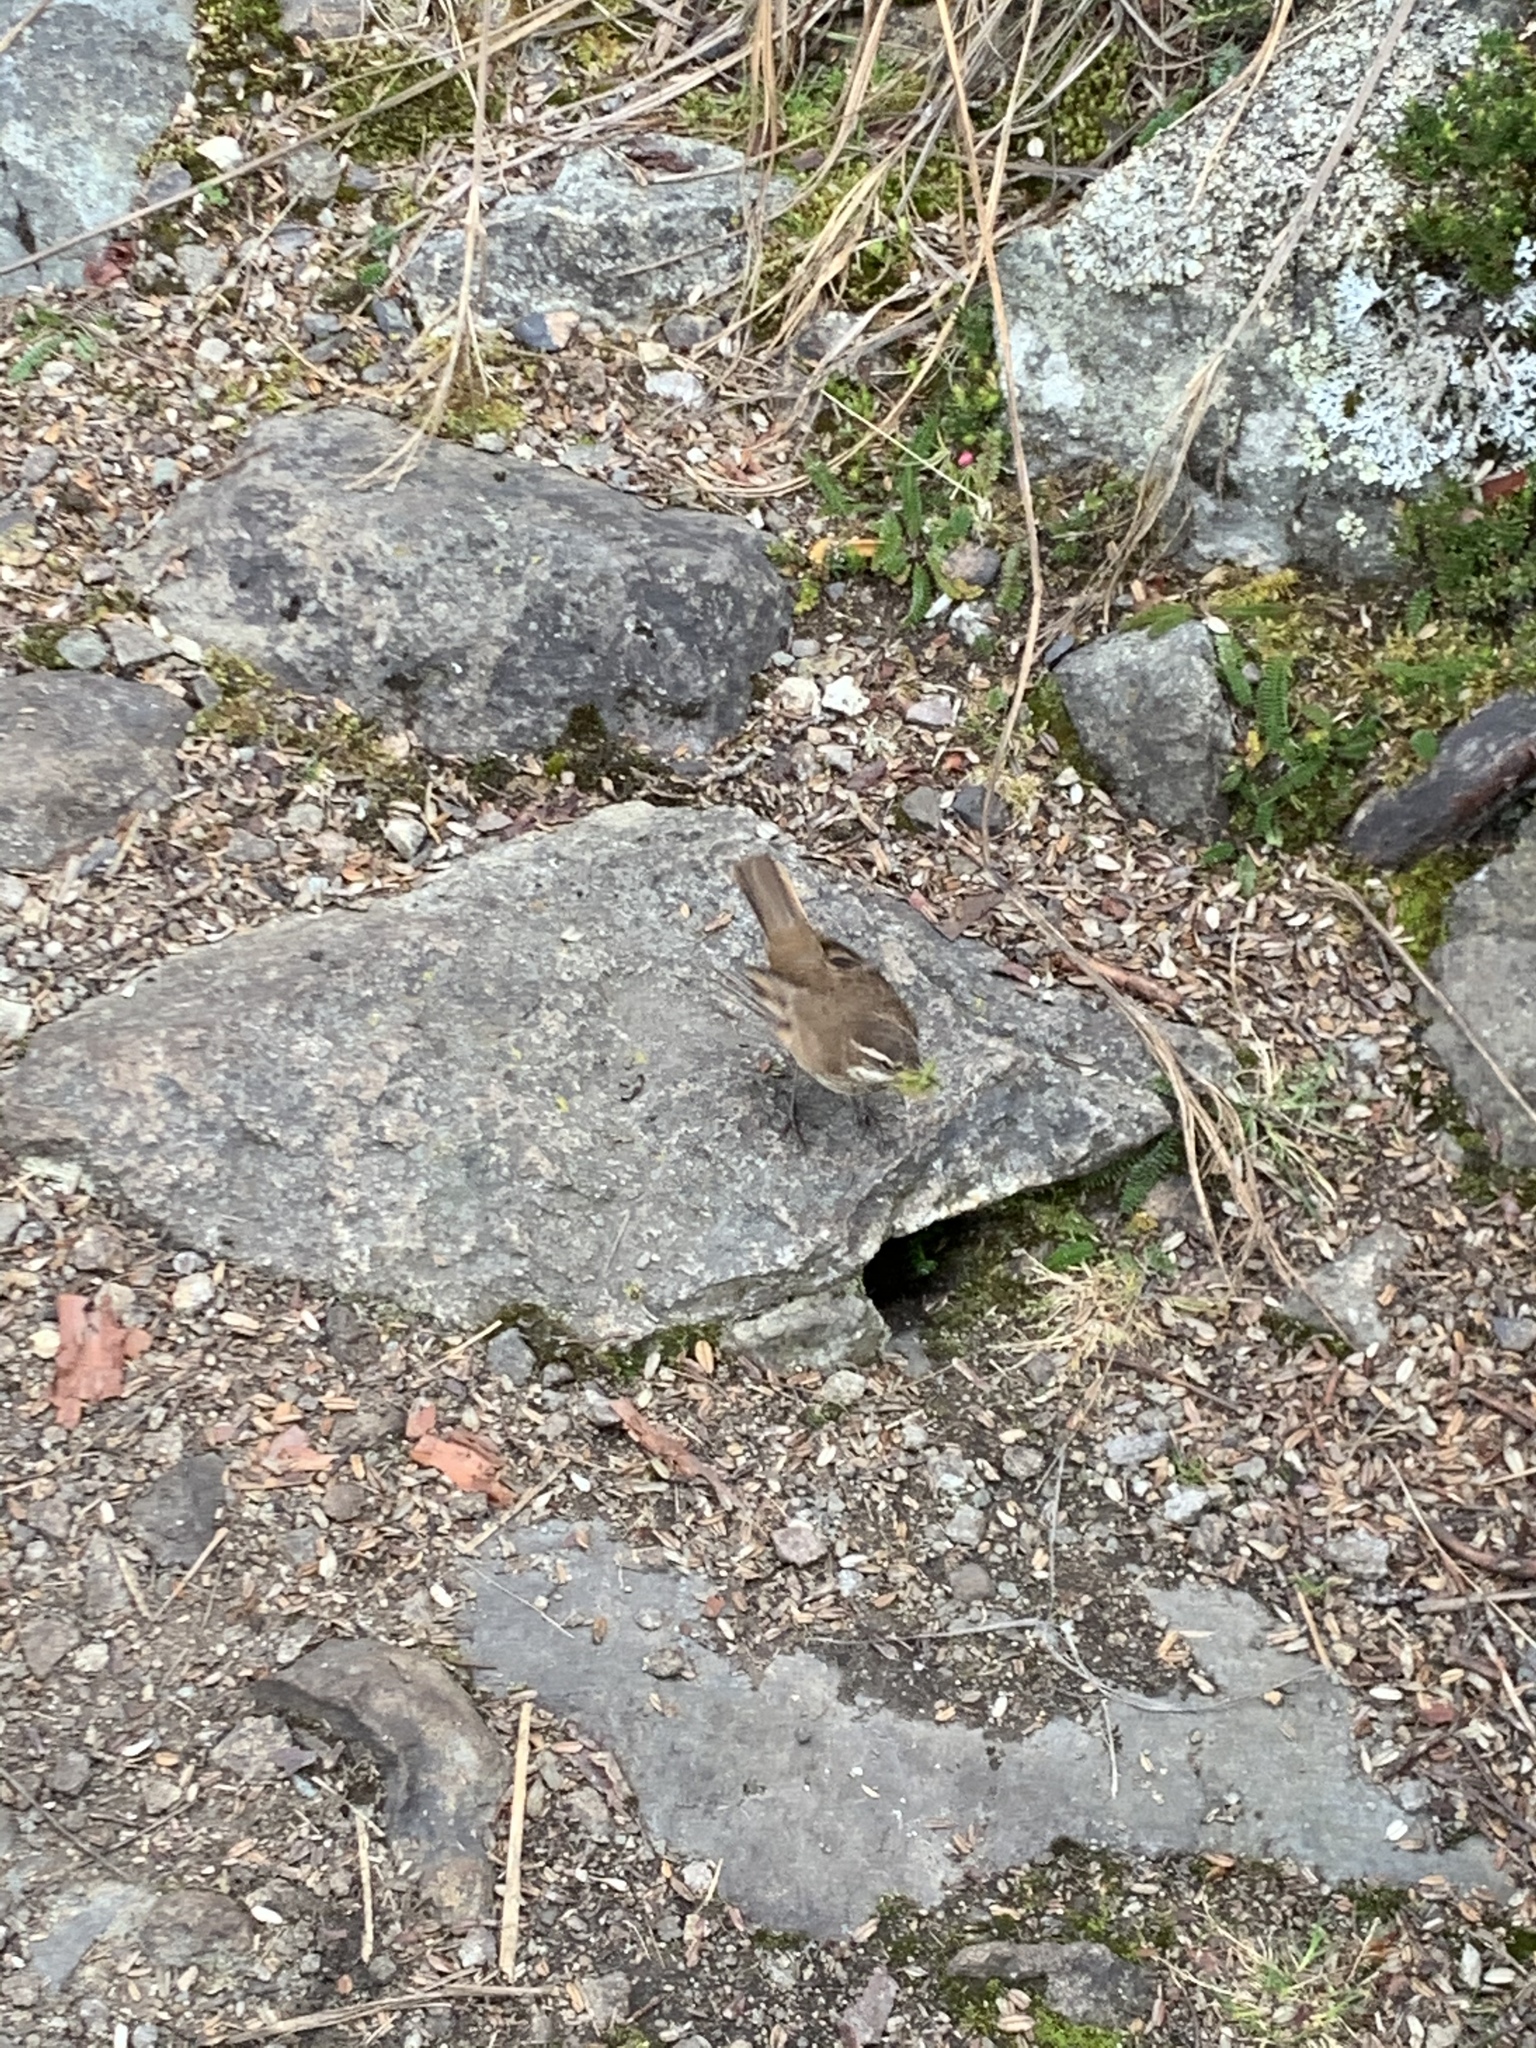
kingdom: Animalia
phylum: Chordata
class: Aves
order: Passeriformes
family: Furnariidae
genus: Cinclodes
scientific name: Cinclodes albidiventris
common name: Chestnut-winged cinclodes
